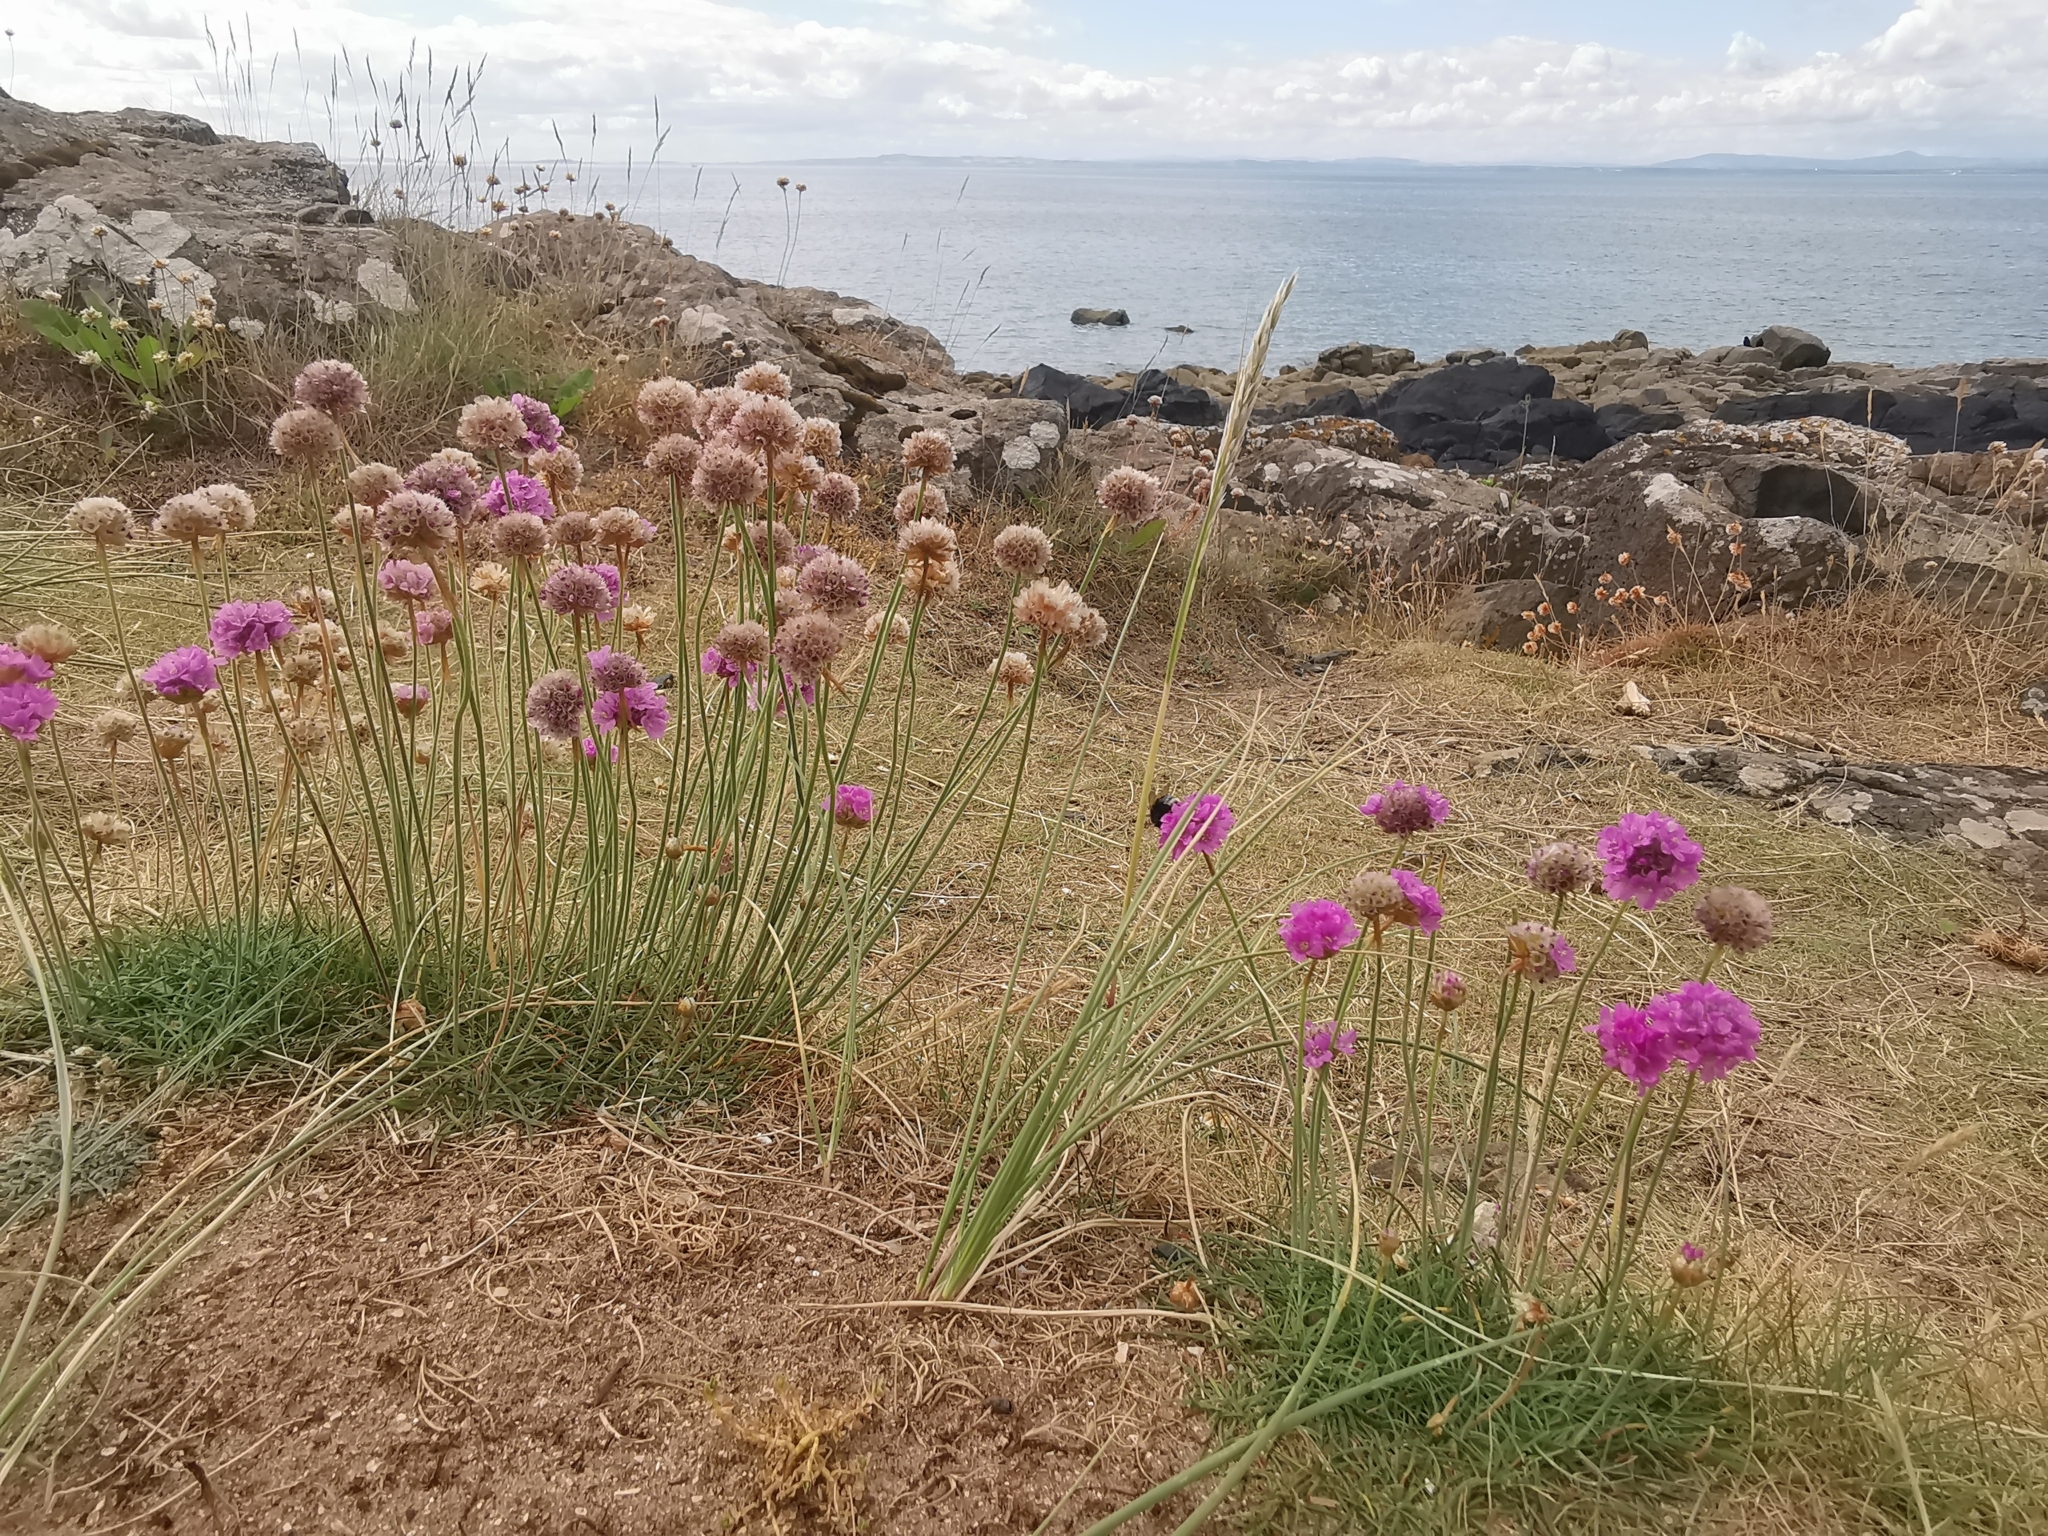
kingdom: Plantae
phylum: Tracheophyta
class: Magnoliopsida
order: Caryophyllales
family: Plumbaginaceae
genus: Armeria
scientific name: Armeria maritima
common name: Thrift
